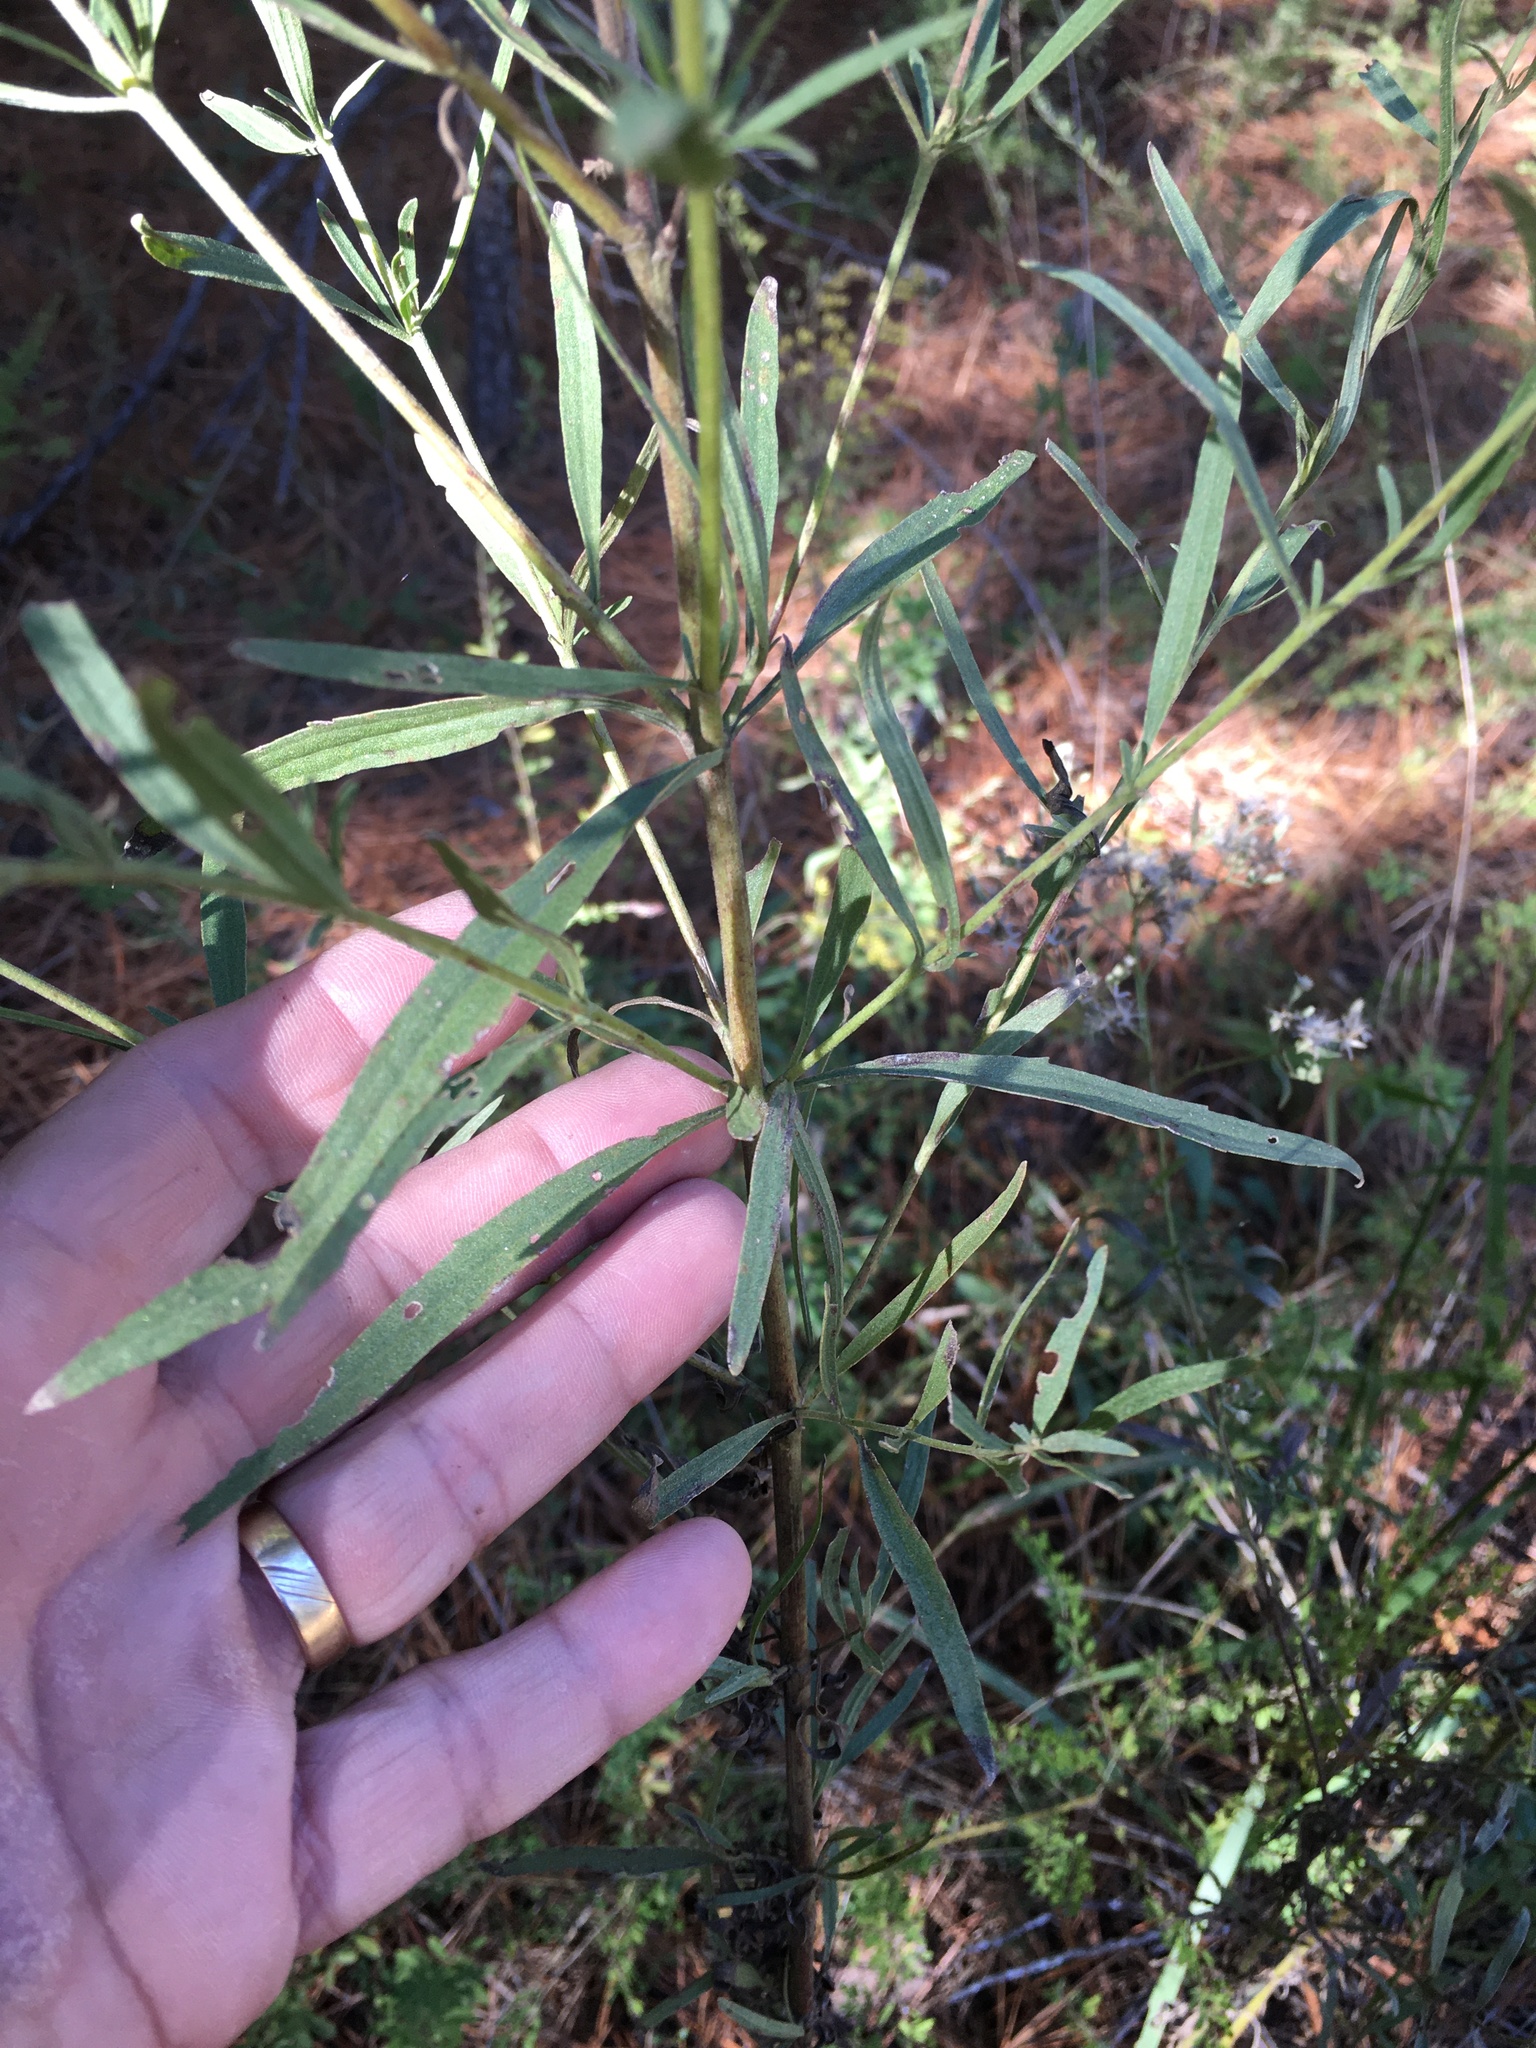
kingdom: Plantae
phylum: Tracheophyta
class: Magnoliopsida
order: Asterales
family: Asteraceae
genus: Eupatorium
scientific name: Eupatorium torreyanum
